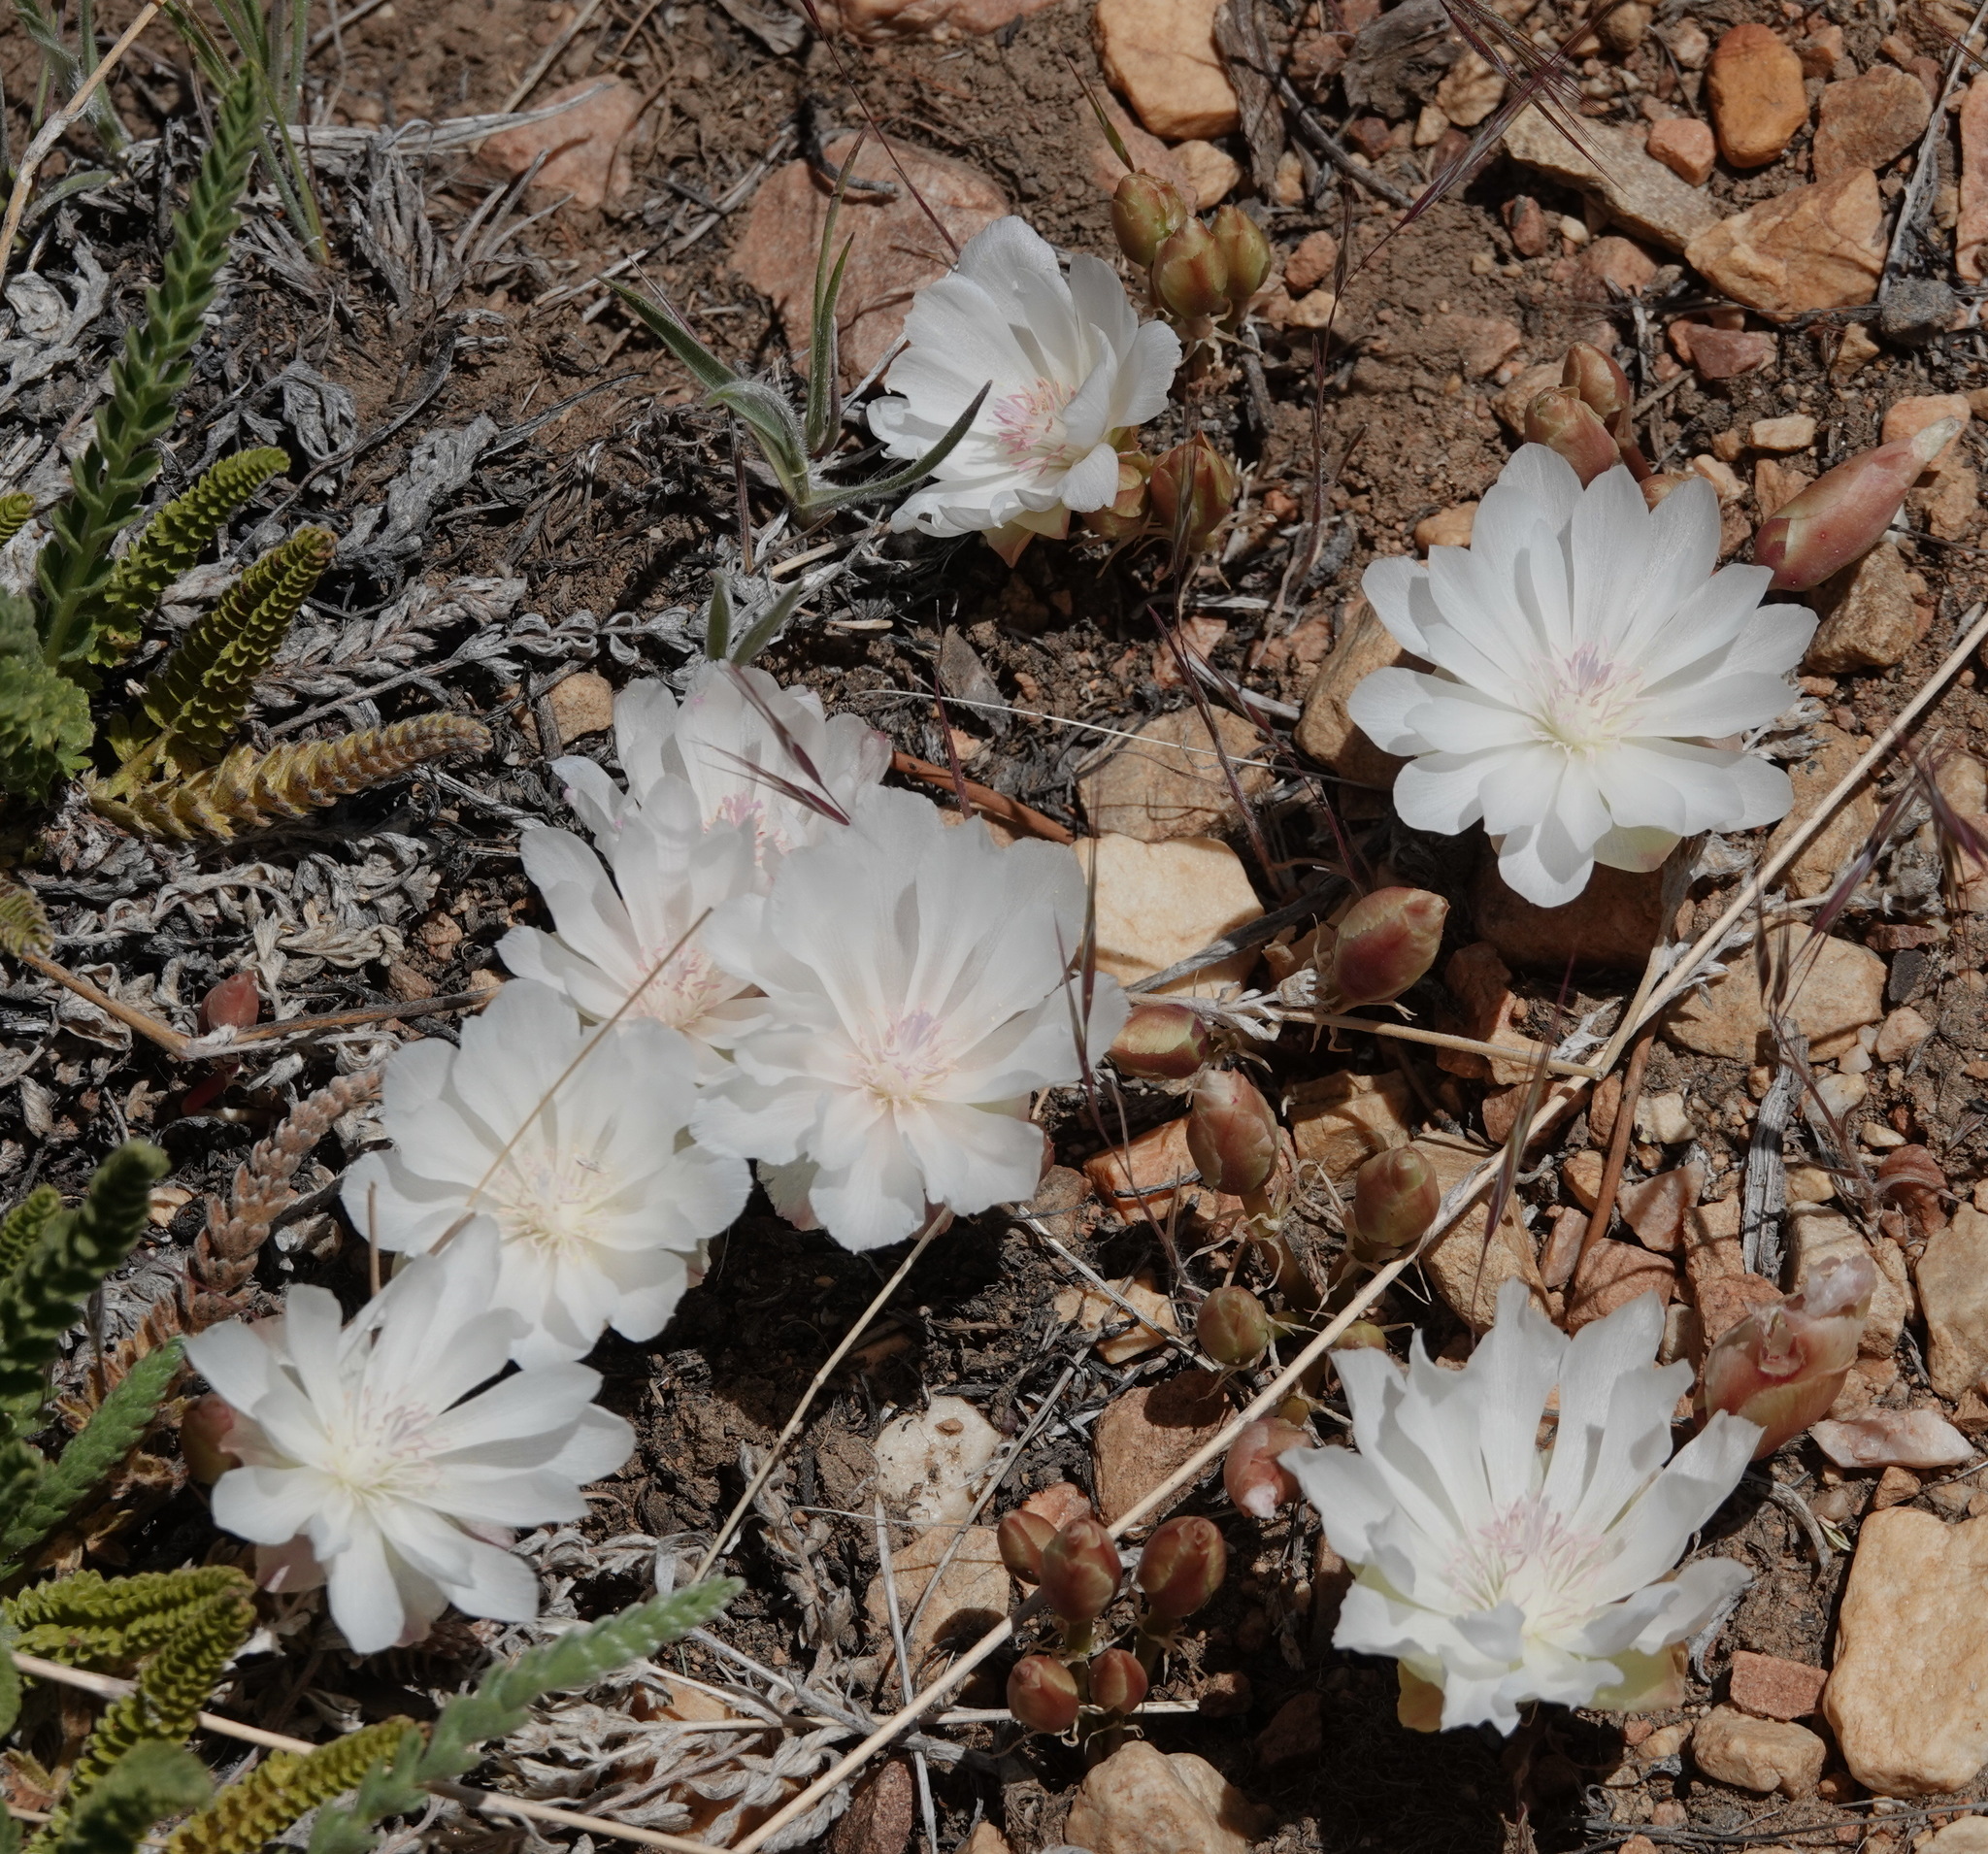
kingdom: Plantae
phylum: Tracheophyta
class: Magnoliopsida
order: Caryophyllales
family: Montiaceae
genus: Lewisia
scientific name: Lewisia rediviva
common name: Bitter-root
